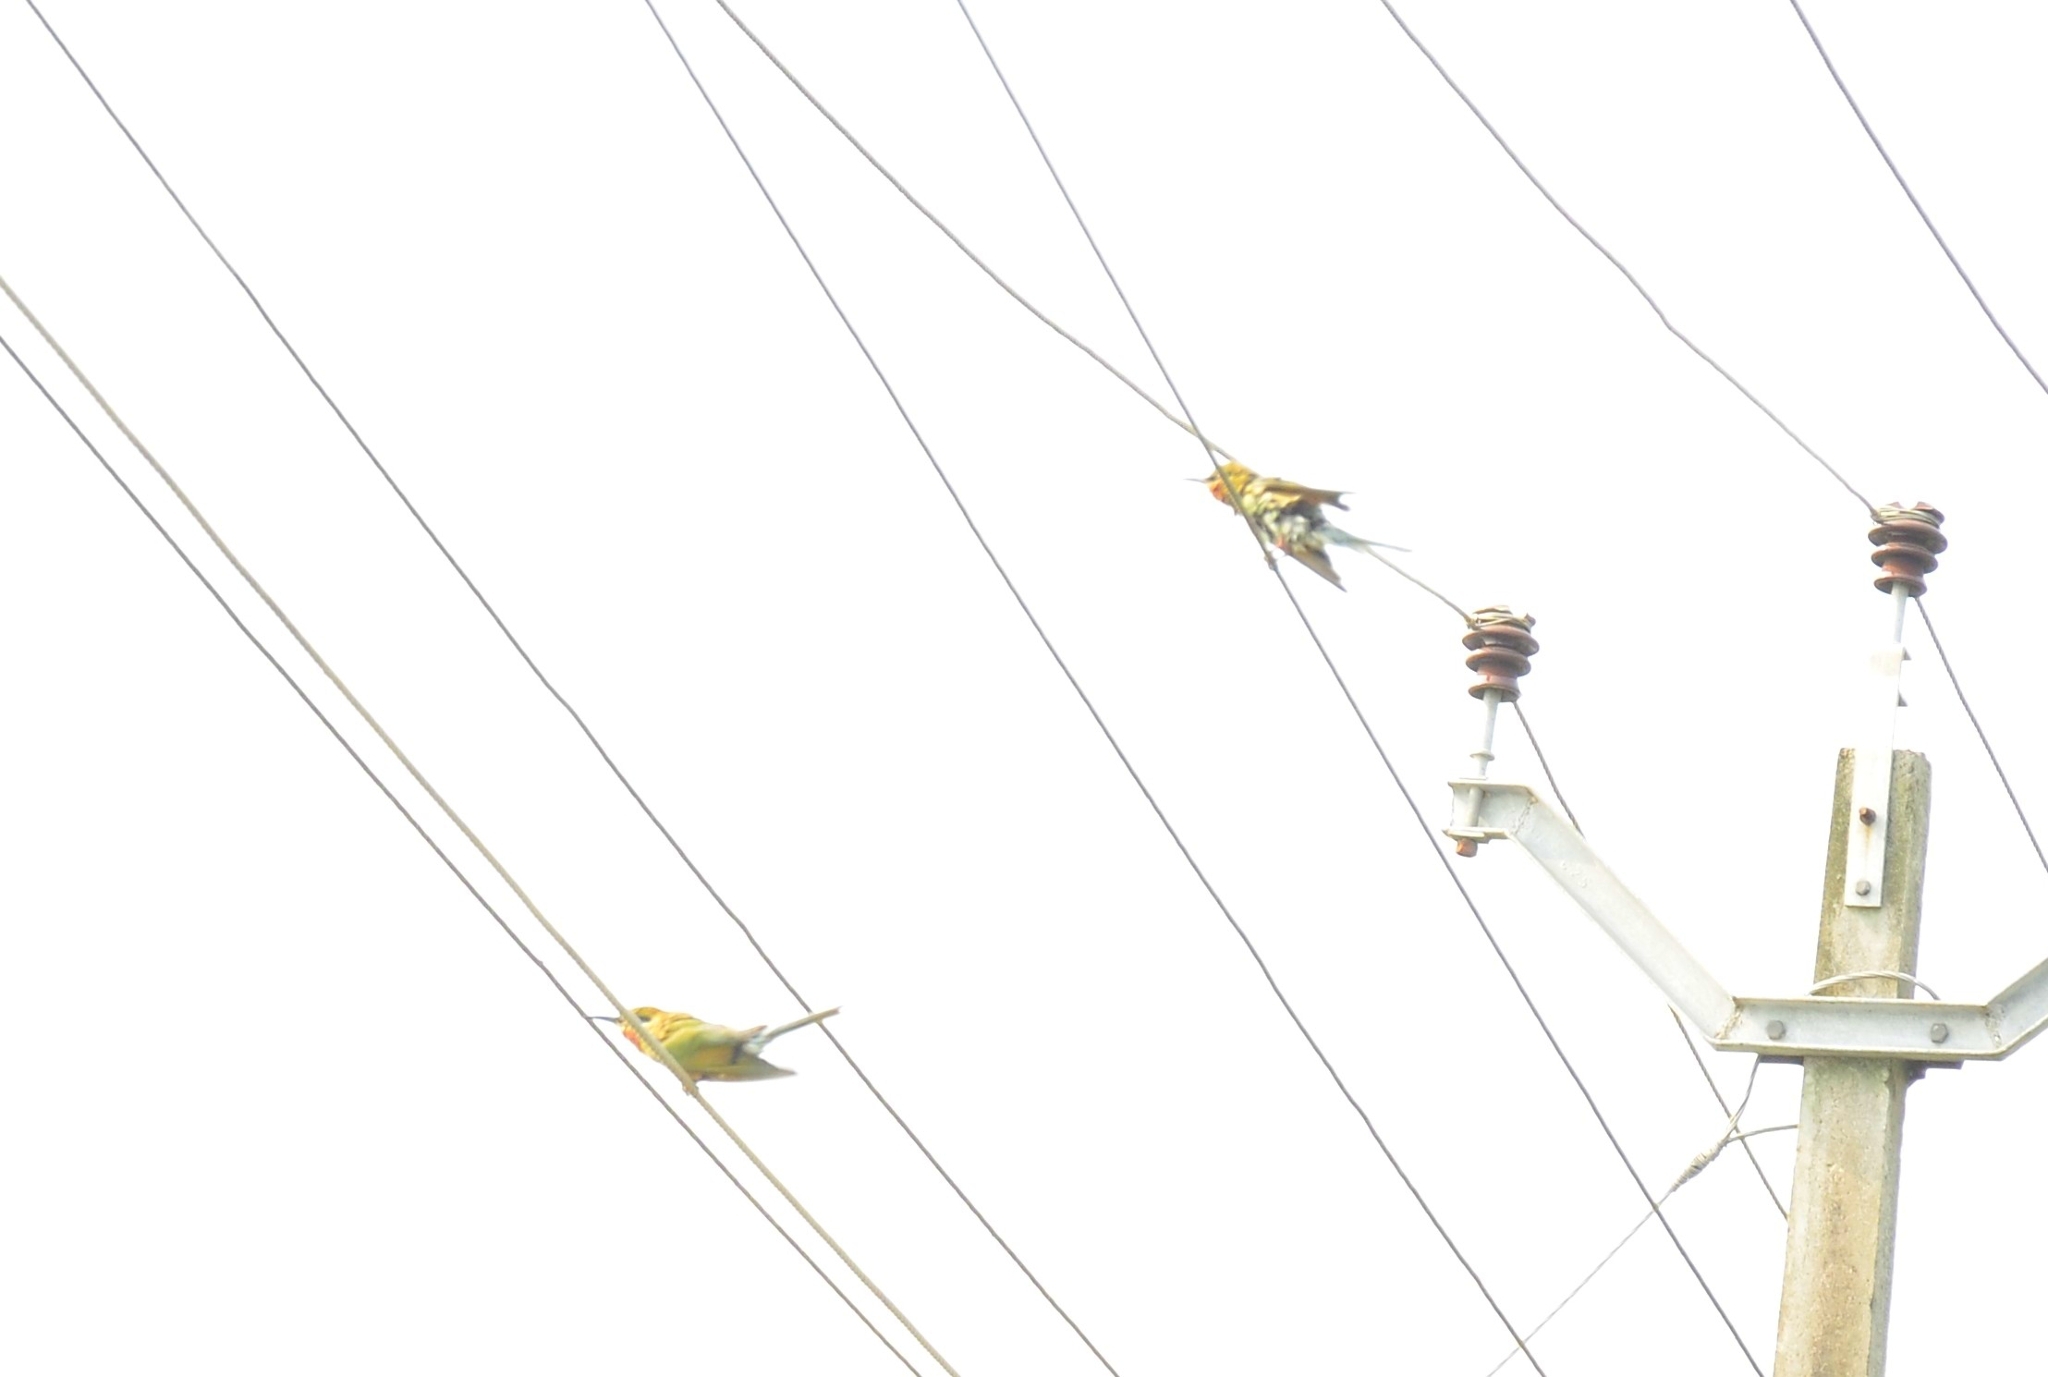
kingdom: Animalia
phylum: Chordata
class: Aves
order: Coraciiformes
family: Meropidae
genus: Merops
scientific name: Merops philippinus
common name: Blue-tailed bee-eater
